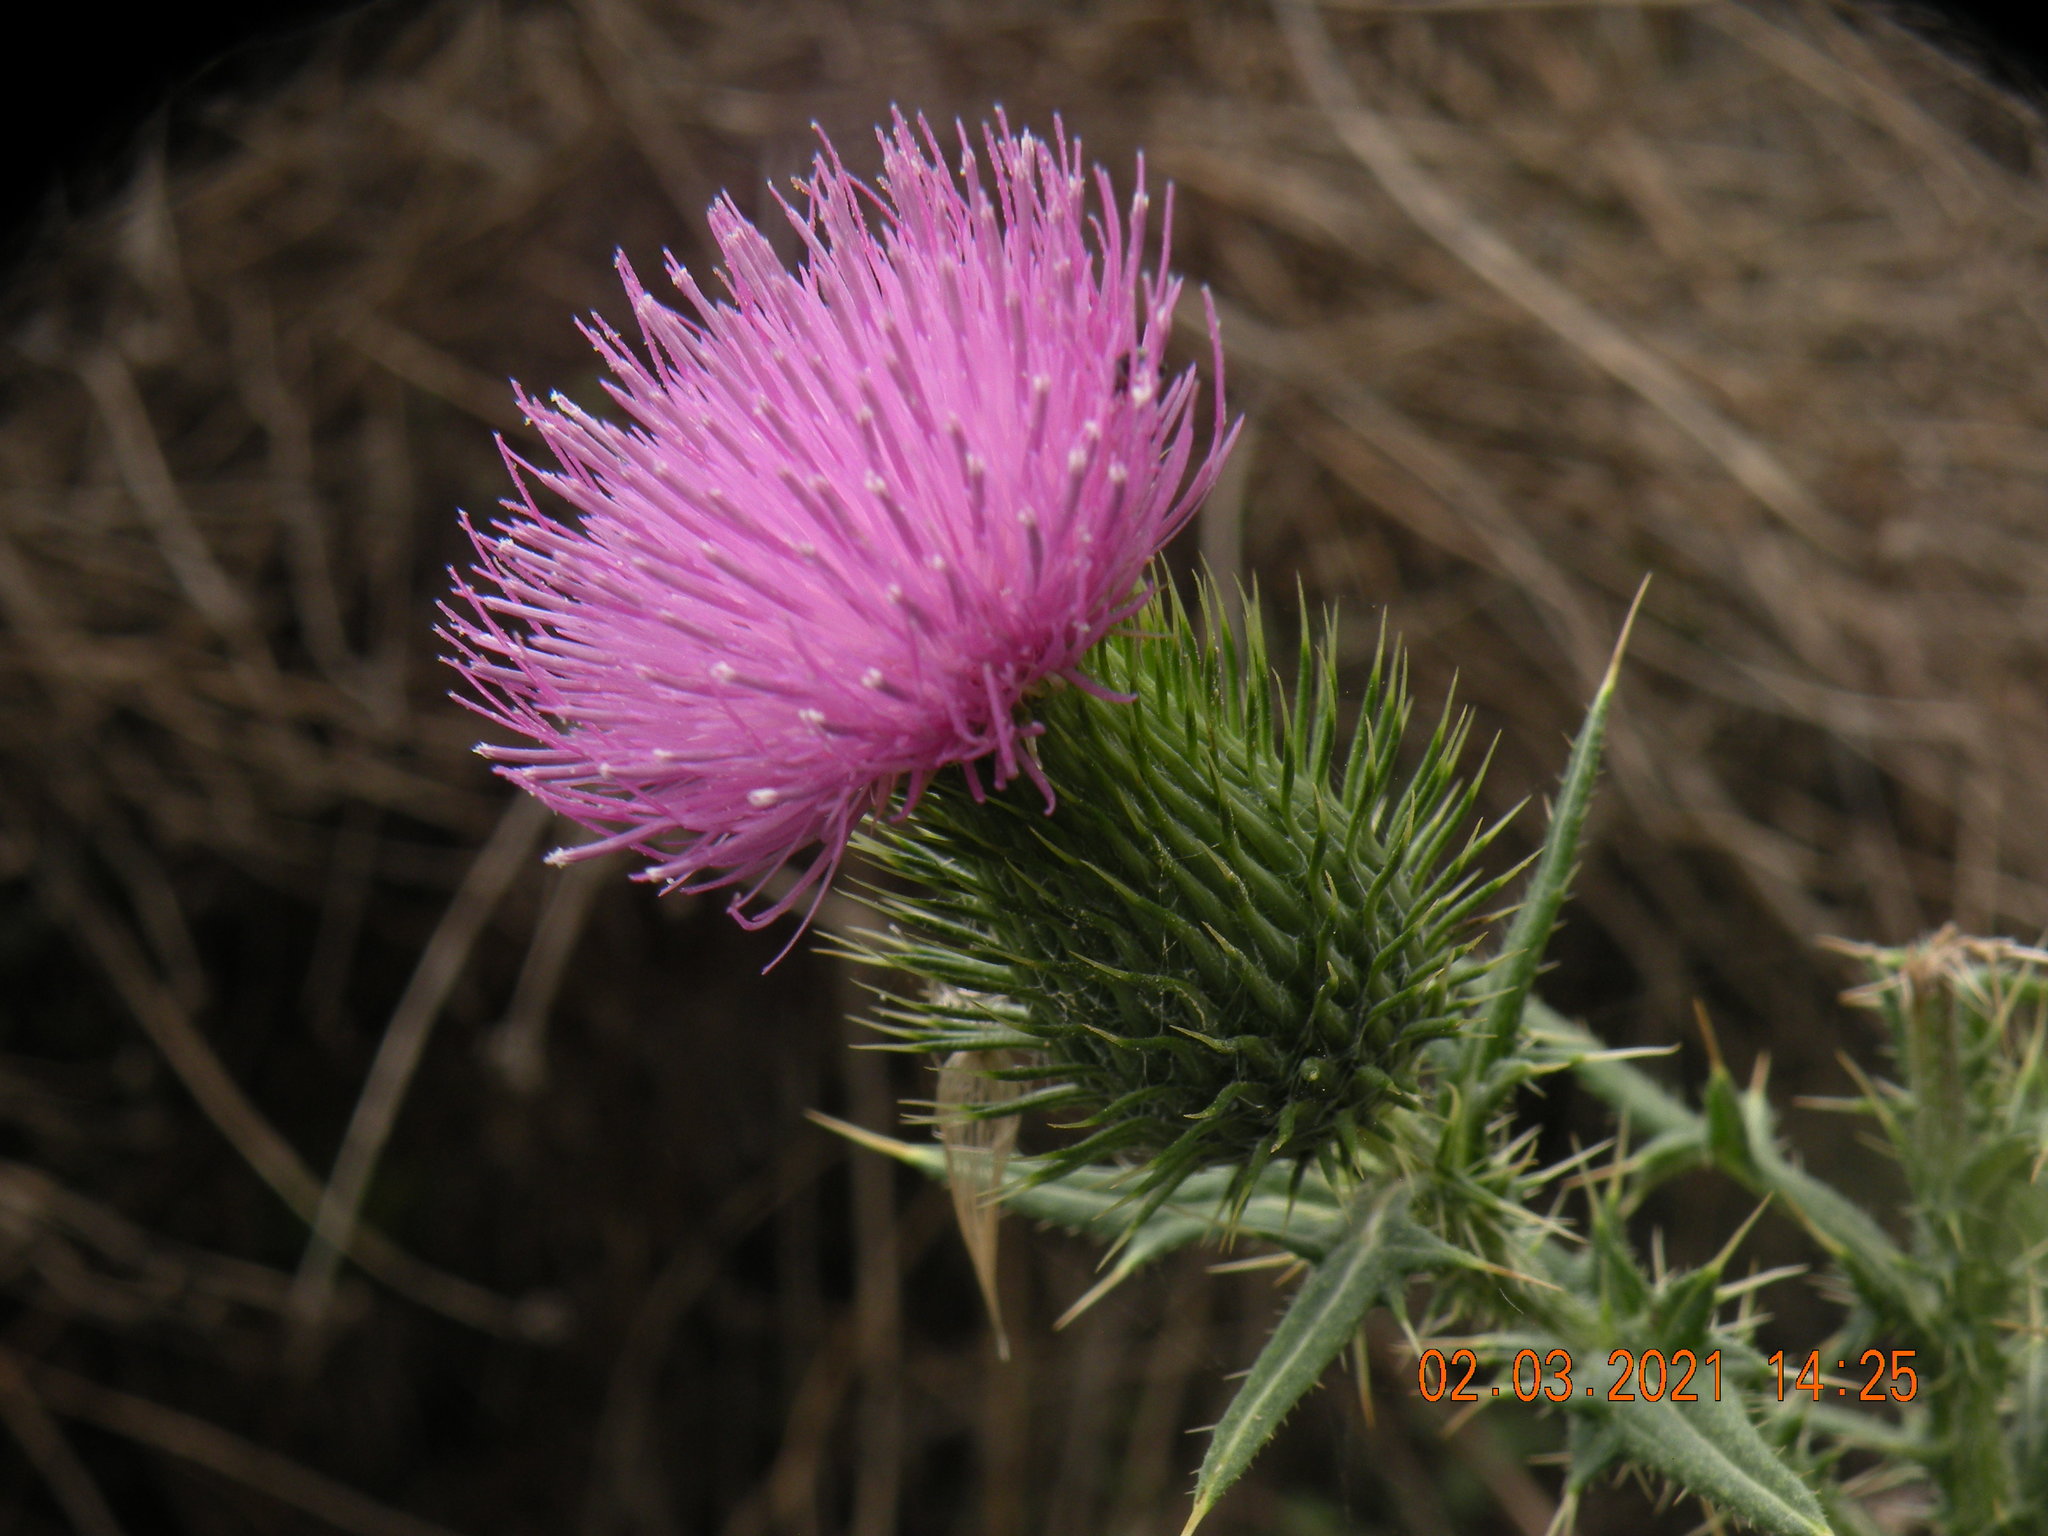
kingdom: Plantae
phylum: Tracheophyta
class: Magnoliopsida
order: Asterales
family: Asteraceae
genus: Cirsium
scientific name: Cirsium vulgare
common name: Bull thistle
